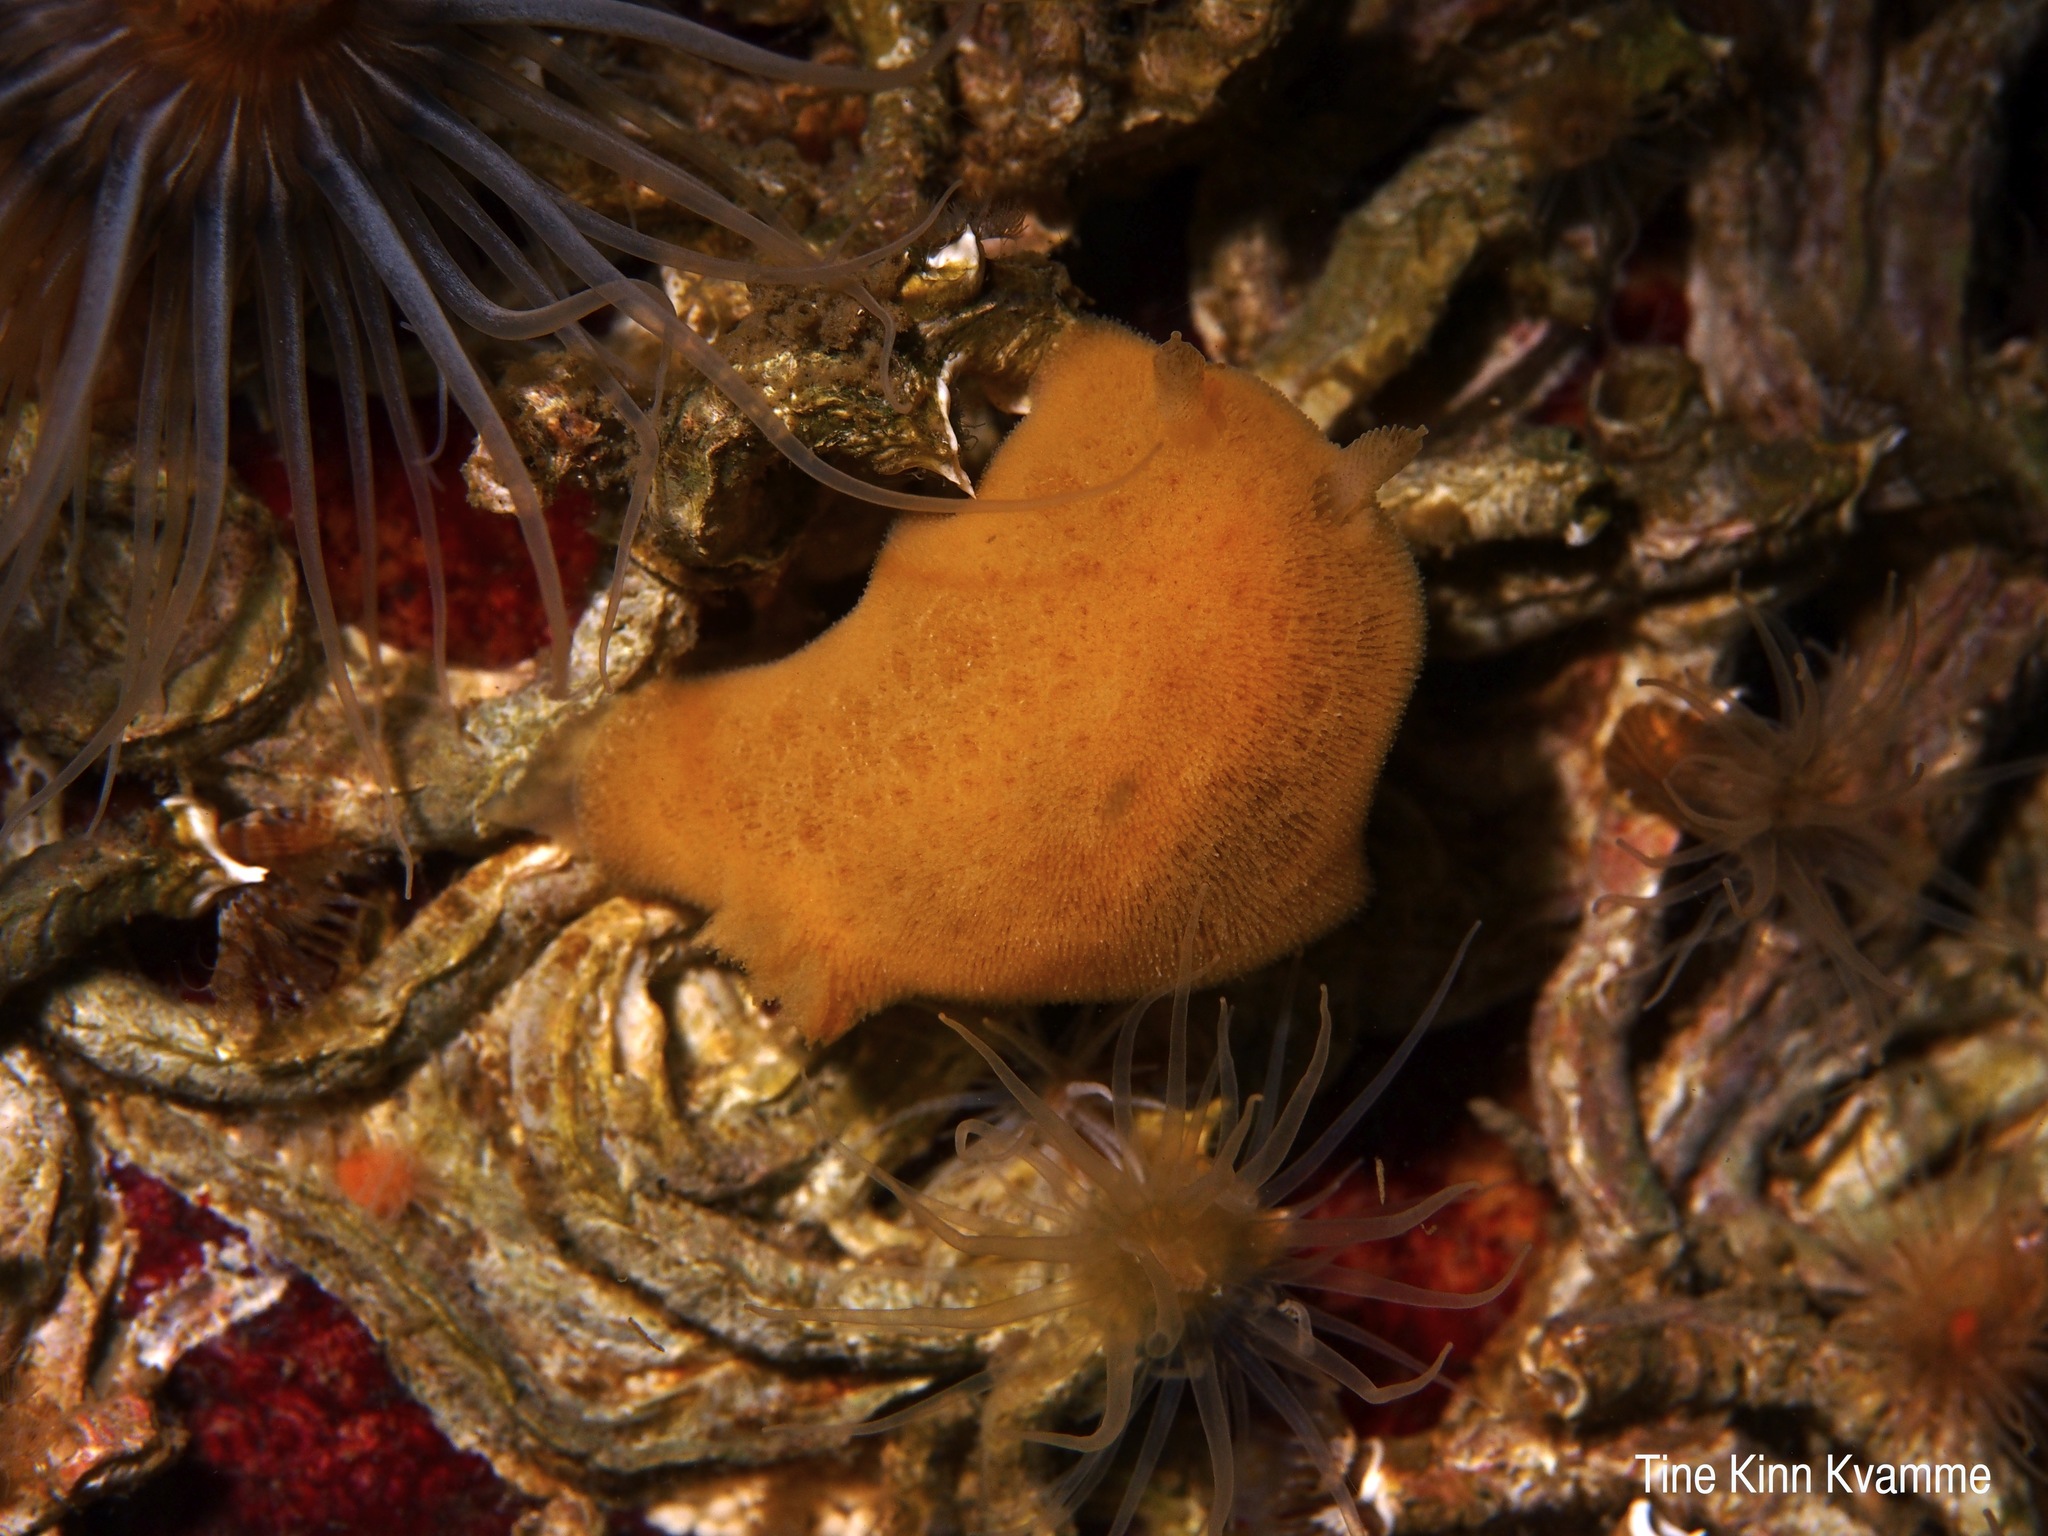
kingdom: Animalia
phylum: Mollusca
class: Gastropoda
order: Nudibranchia
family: Discodorididae
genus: Jorunna
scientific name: Jorunna tomentosa
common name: Grey sea slug
